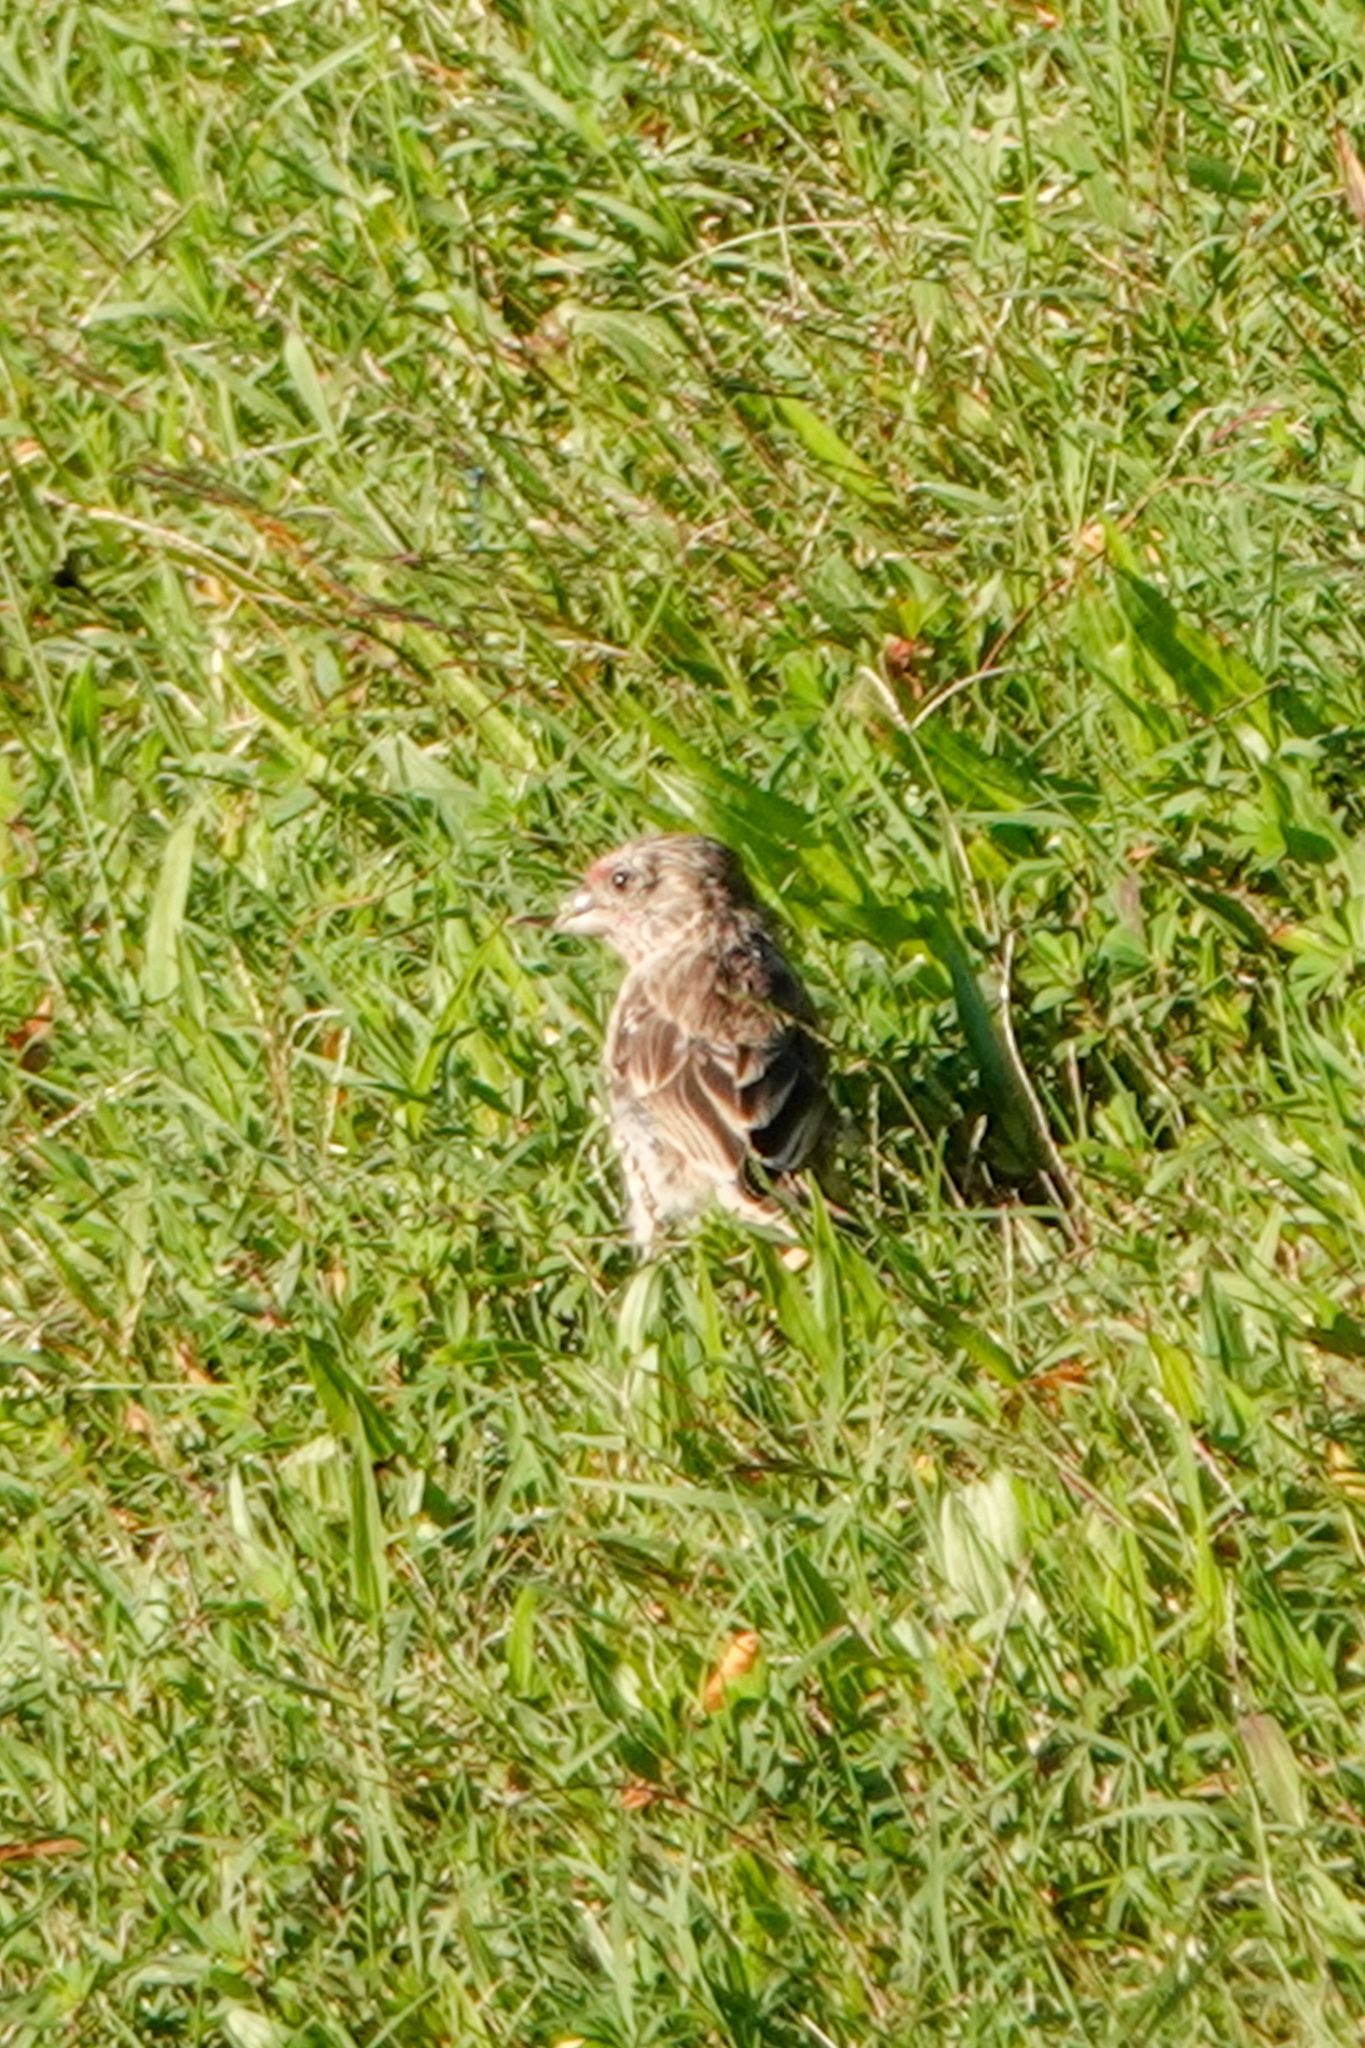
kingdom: Animalia
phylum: Chordata
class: Aves
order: Passeriformes
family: Fringillidae
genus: Haemorhous
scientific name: Haemorhous mexicanus
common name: House finch
